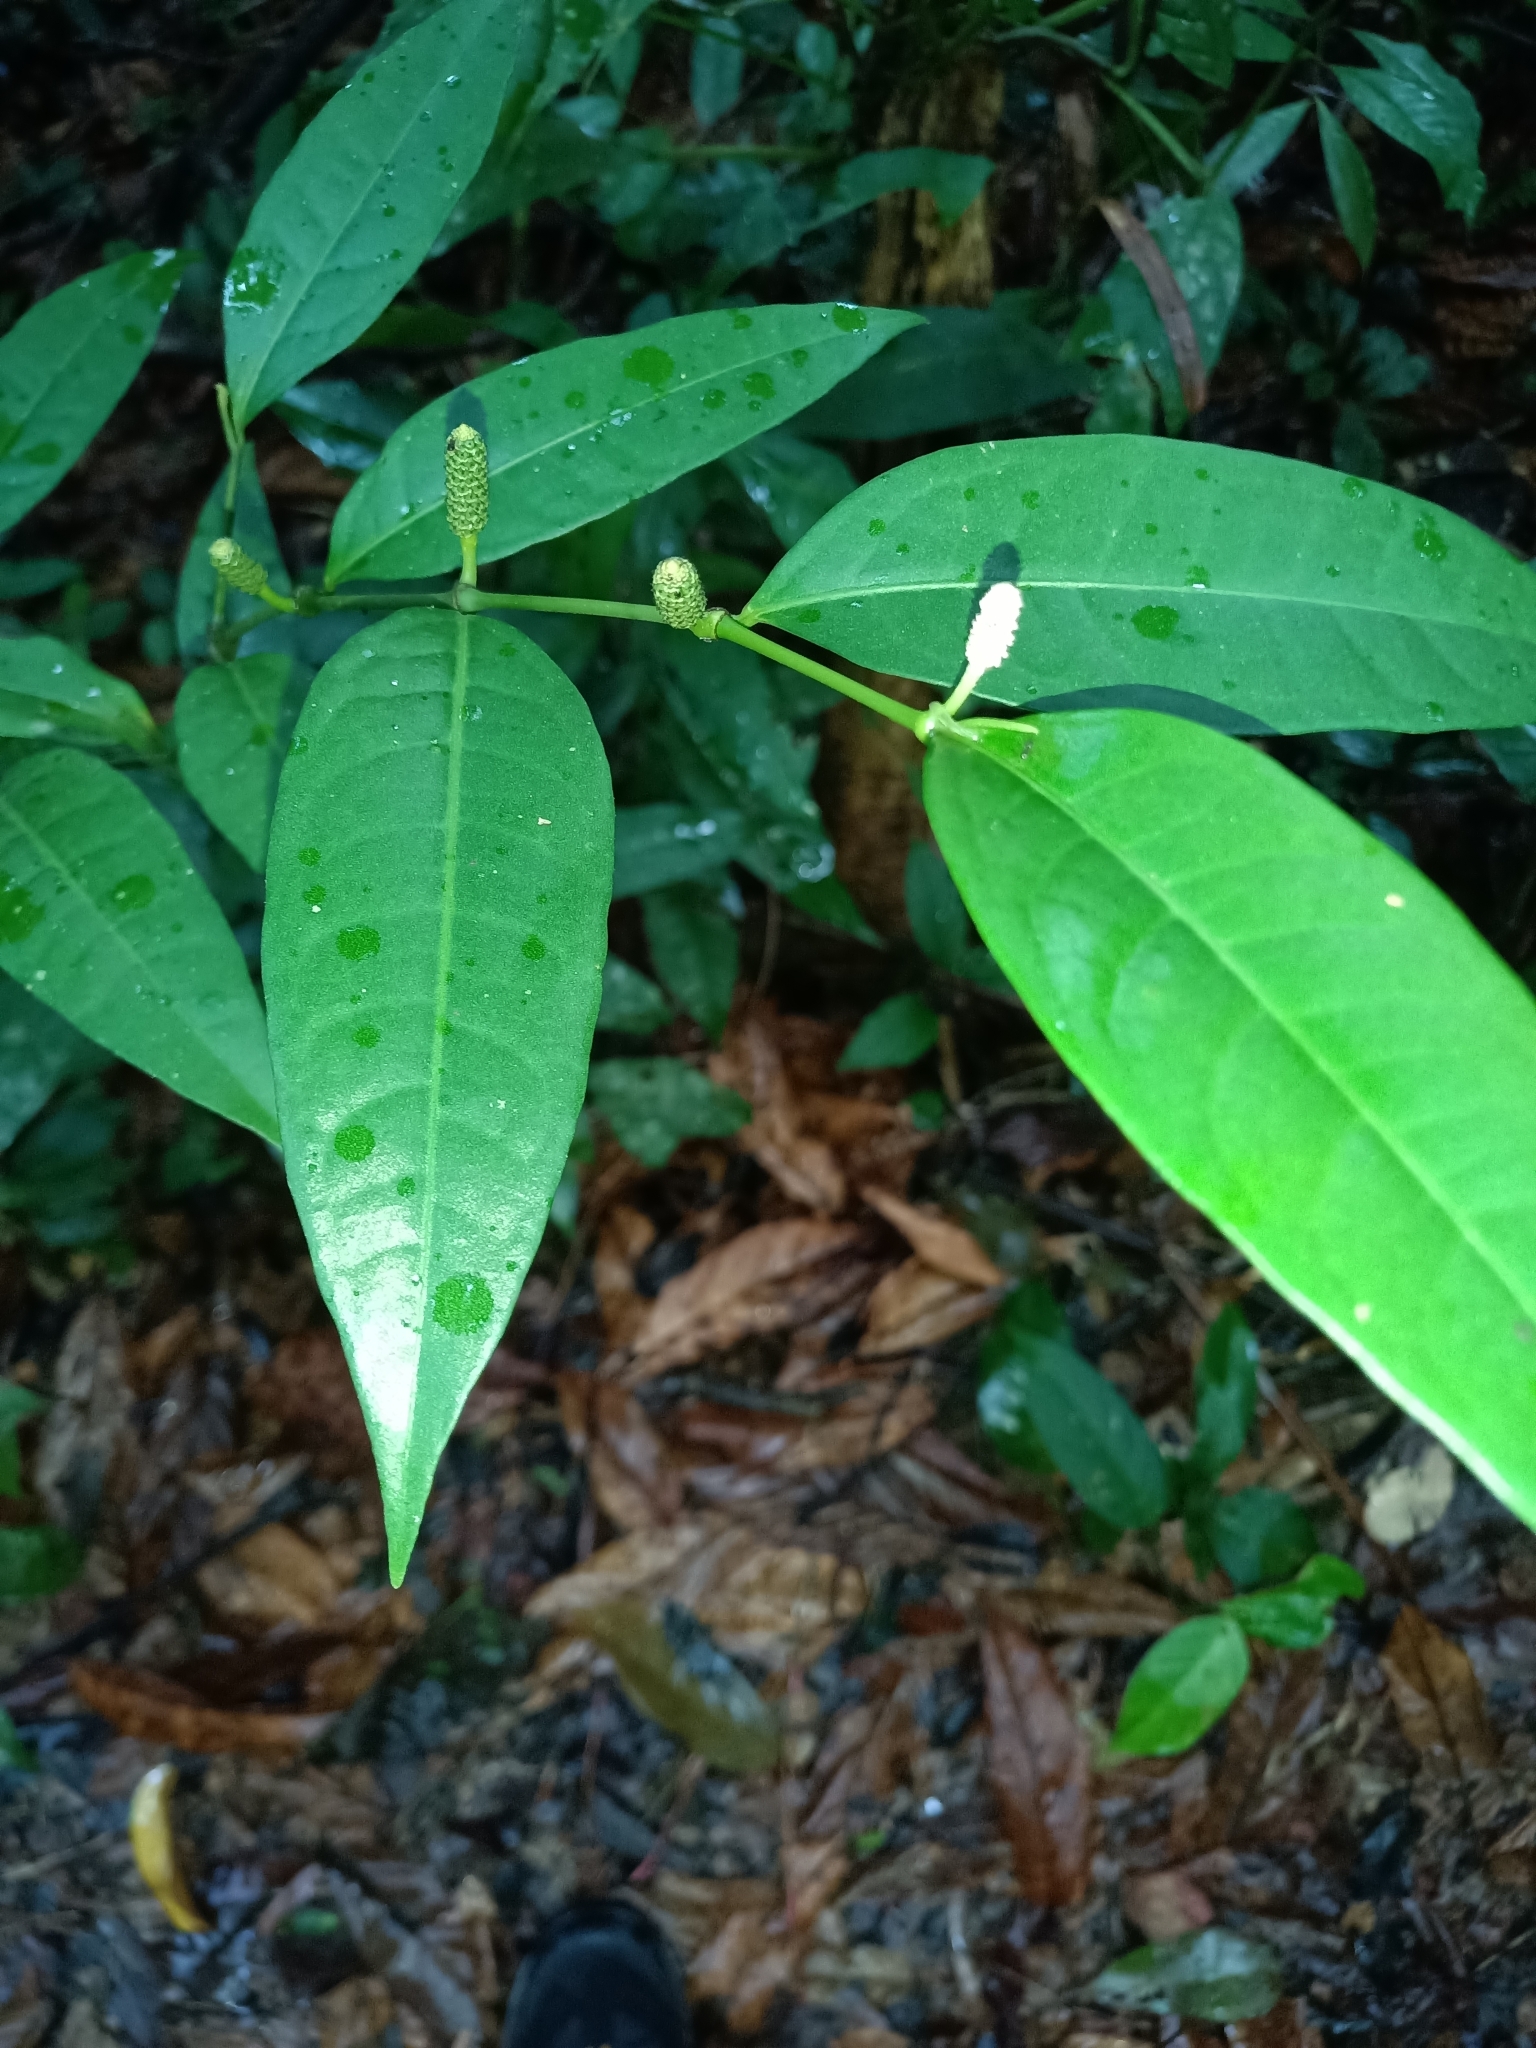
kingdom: Plantae
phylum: Tracheophyta
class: Magnoliopsida
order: Piperales
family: Piperaceae
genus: Piper
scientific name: Piper
